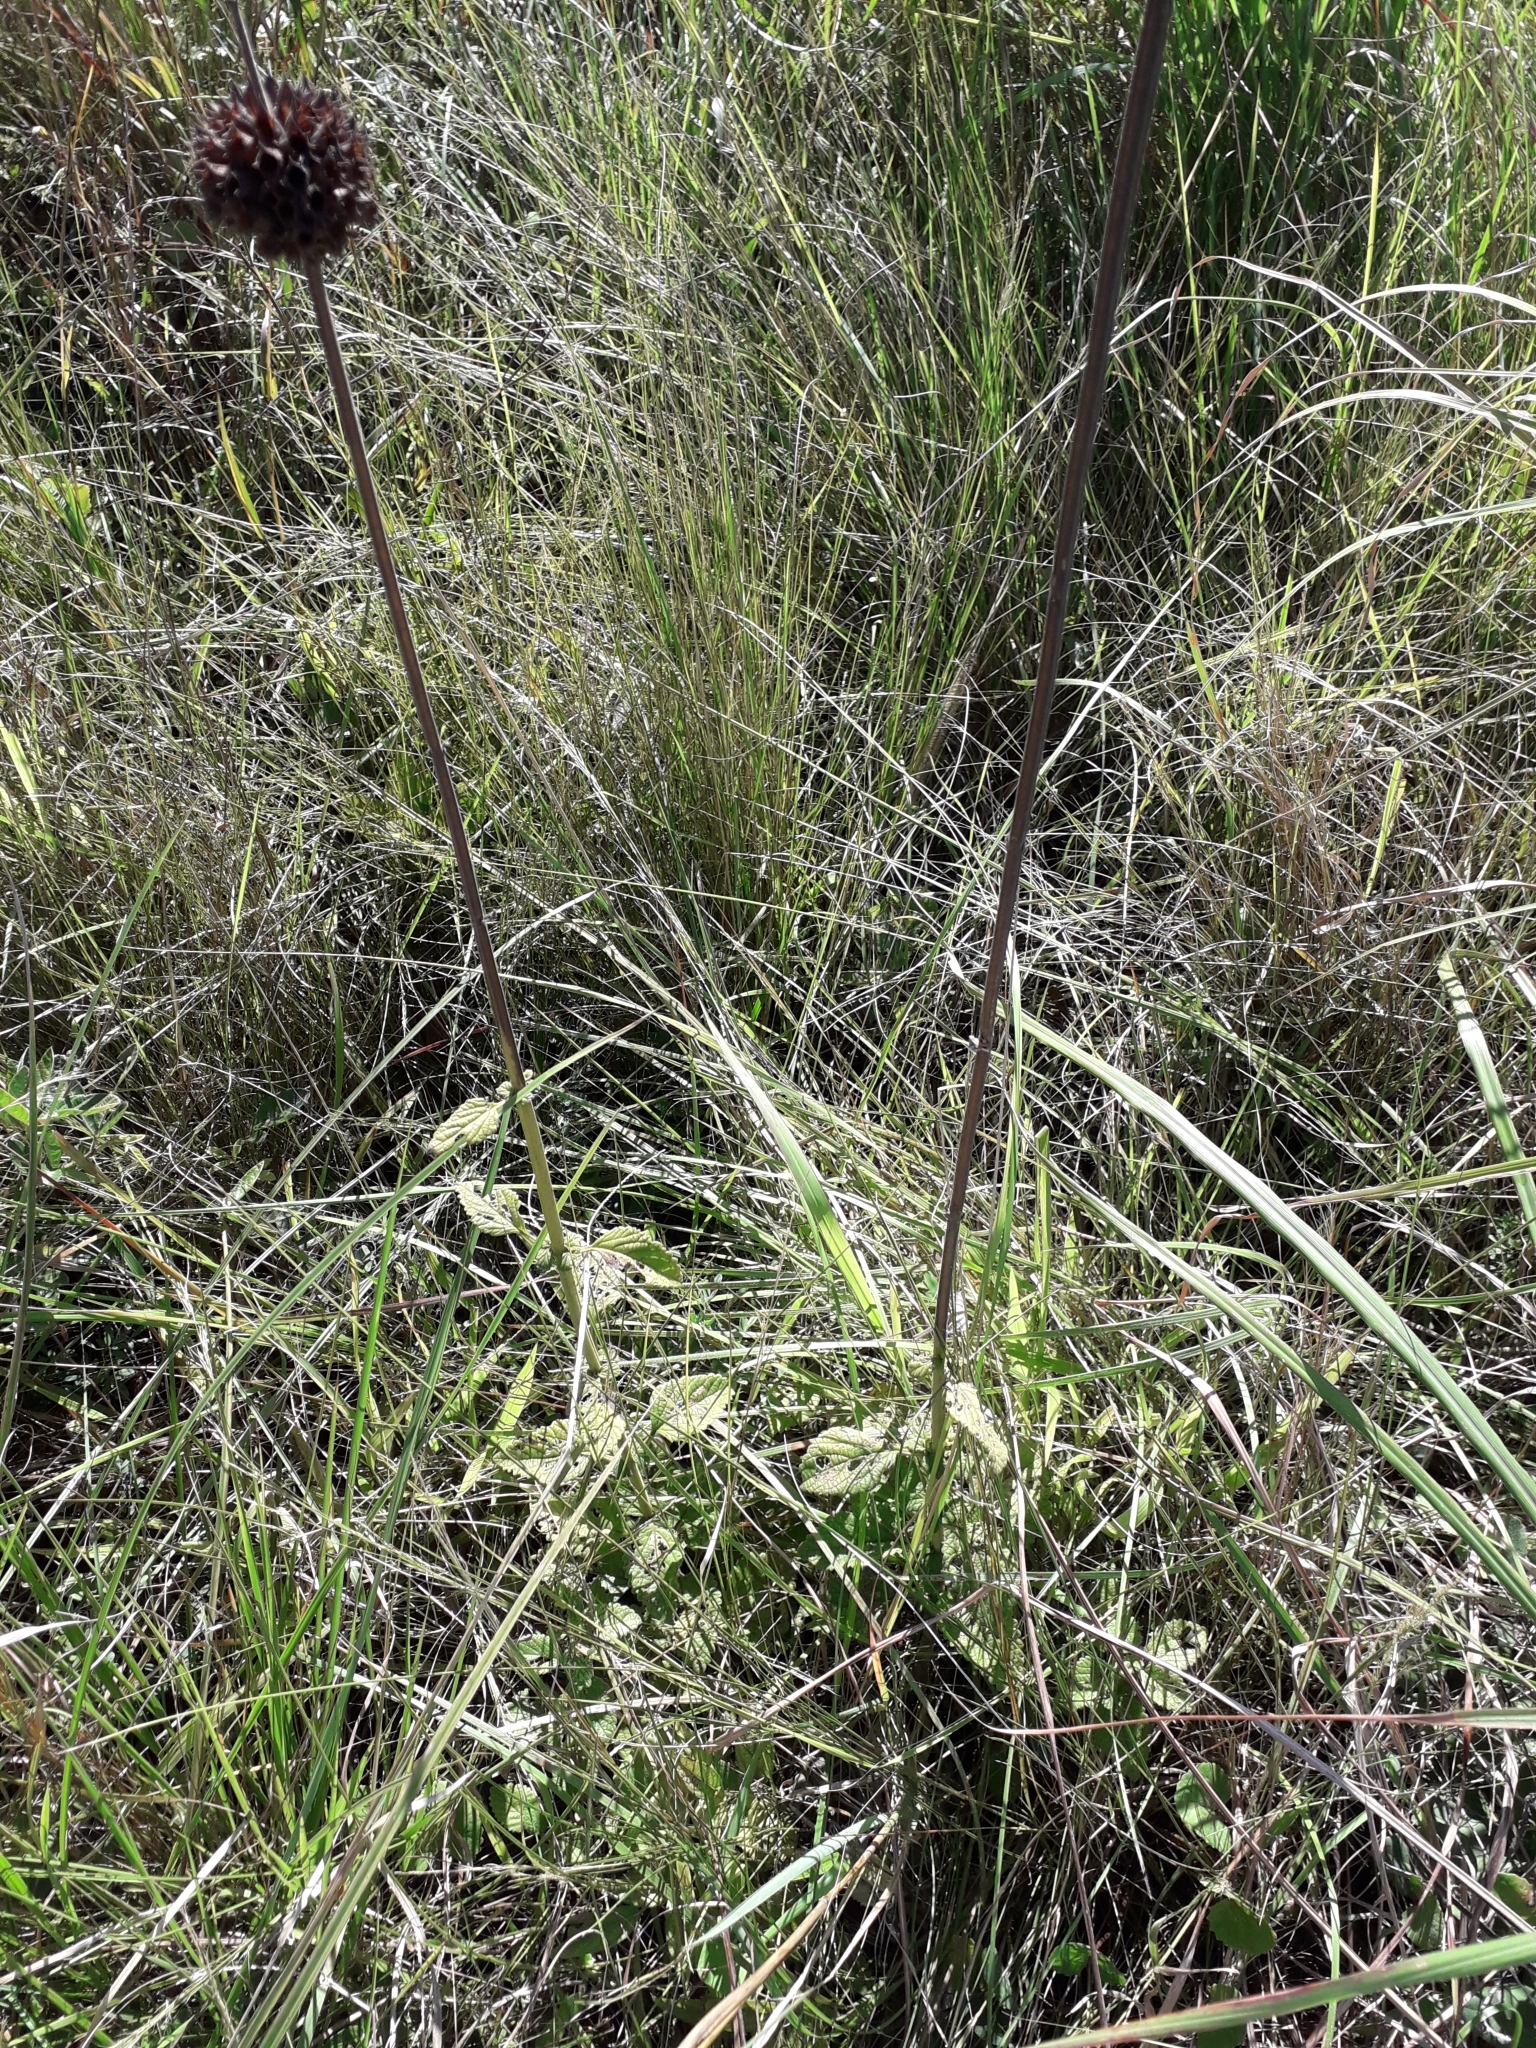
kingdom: Plantae
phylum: Tracheophyta
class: Magnoliopsida
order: Lamiales
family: Lamiaceae
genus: Leonotis
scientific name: Leonotis ocymifolia
